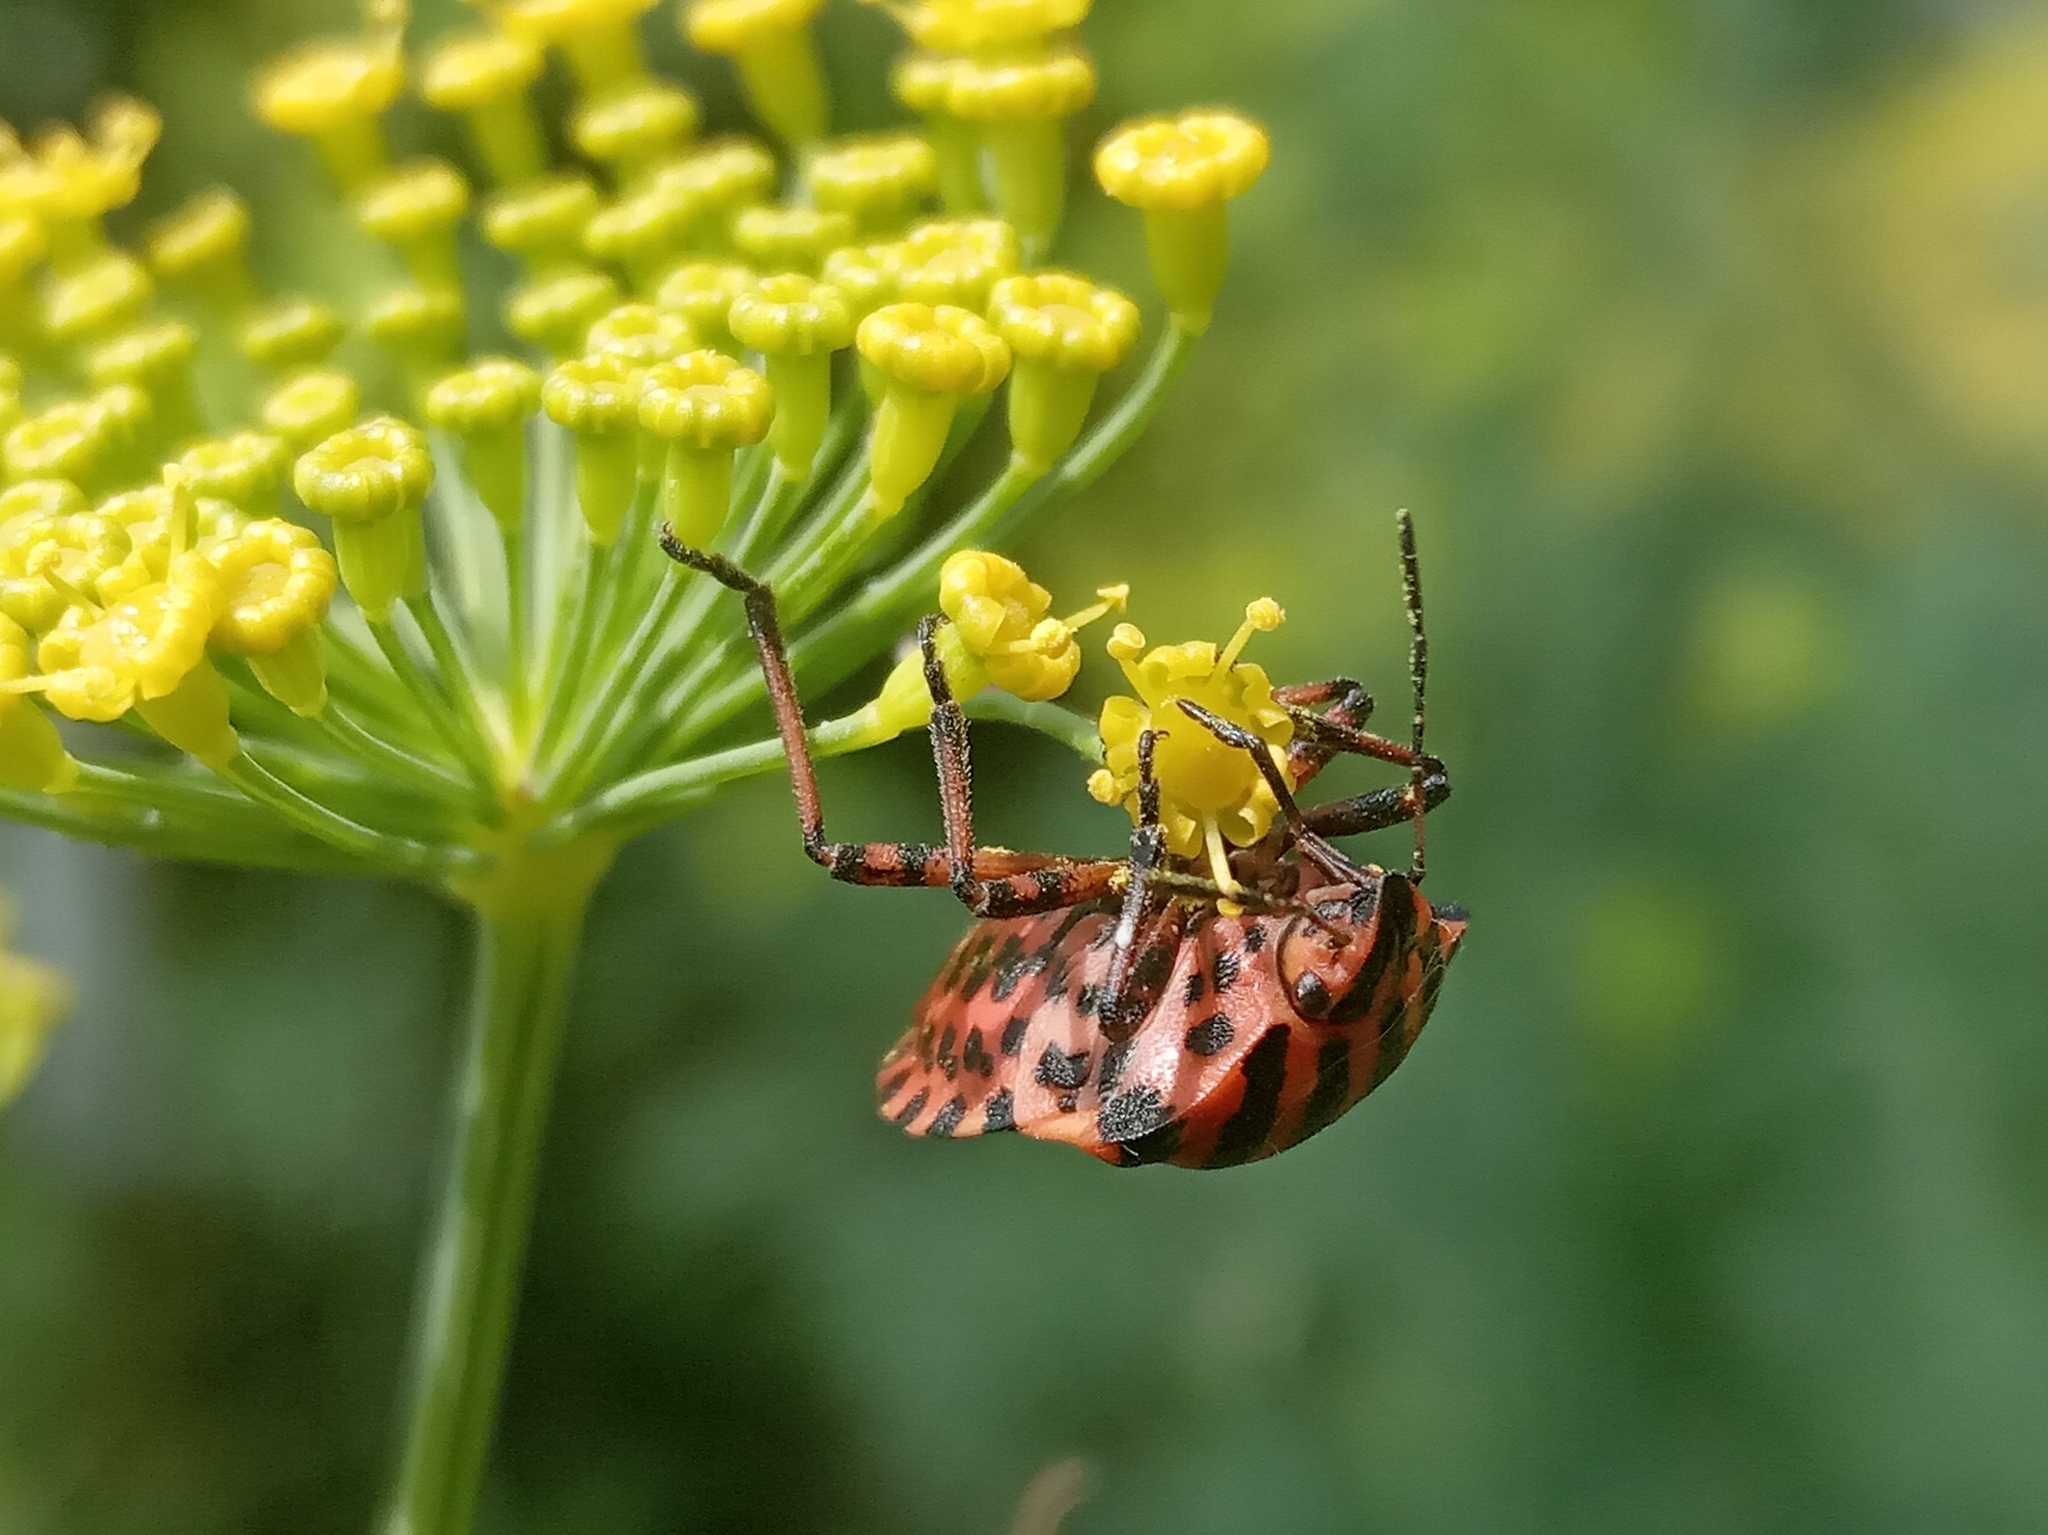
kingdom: Animalia
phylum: Arthropoda
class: Insecta
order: Hemiptera
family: Pentatomidae
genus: Graphosoma
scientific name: Graphosoma italicum
